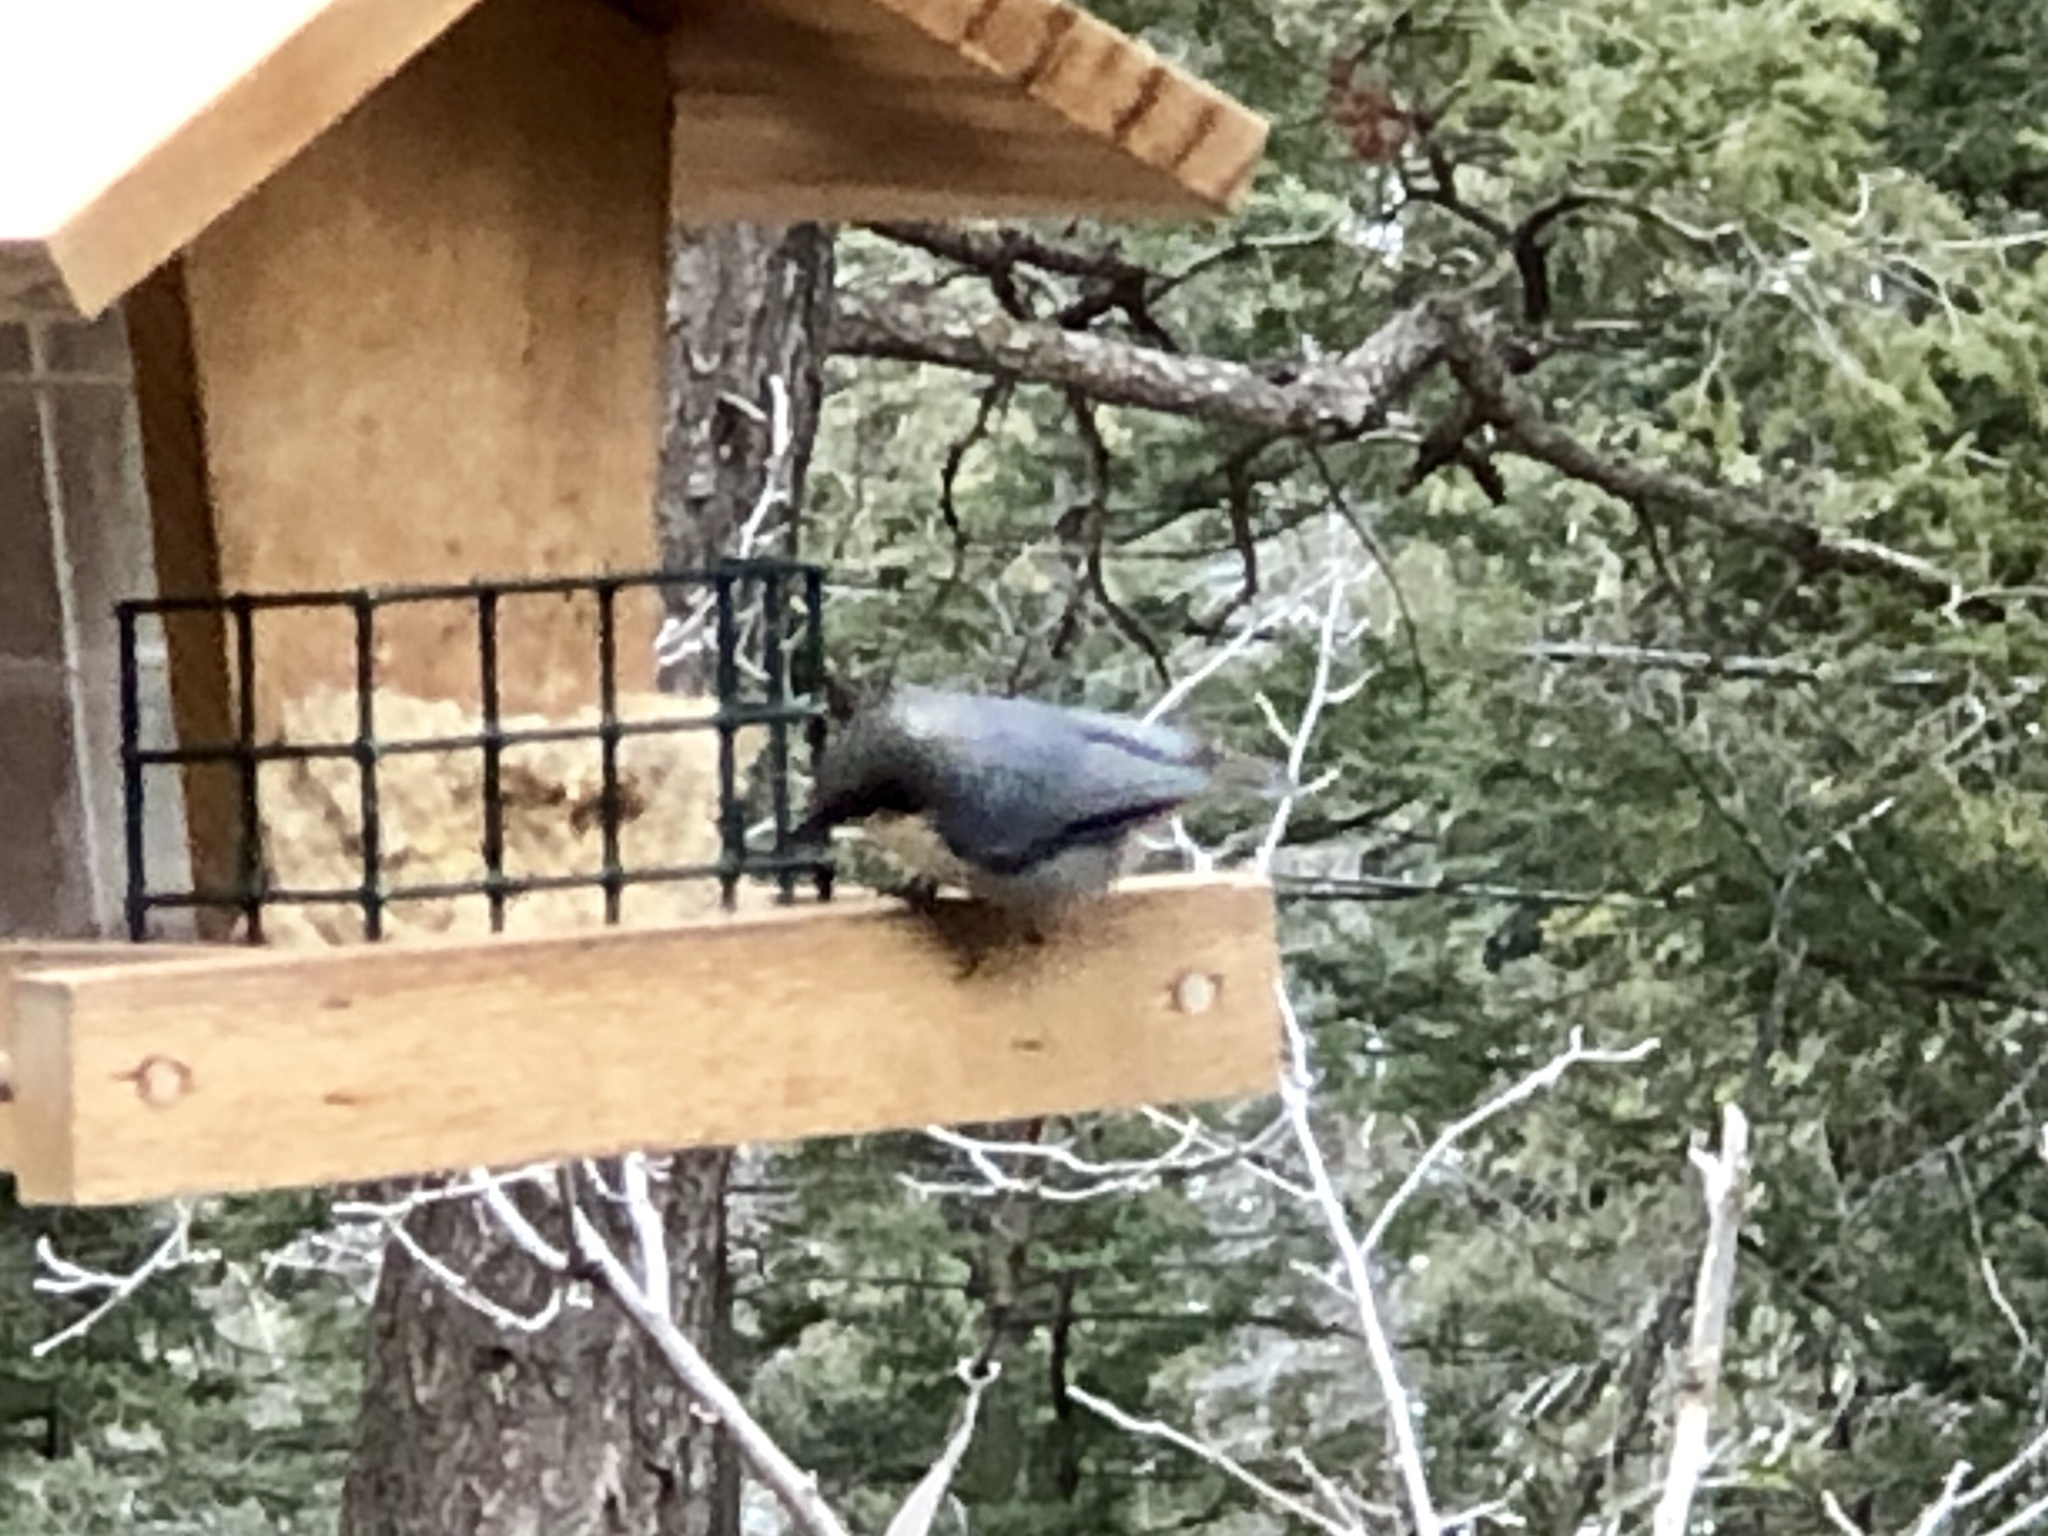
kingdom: Animalia
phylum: Chordata
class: Aves
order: Passeriformes
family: Sittidae
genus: Sitta
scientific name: Sitta pygmaea
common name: Pygmy nuthatch
